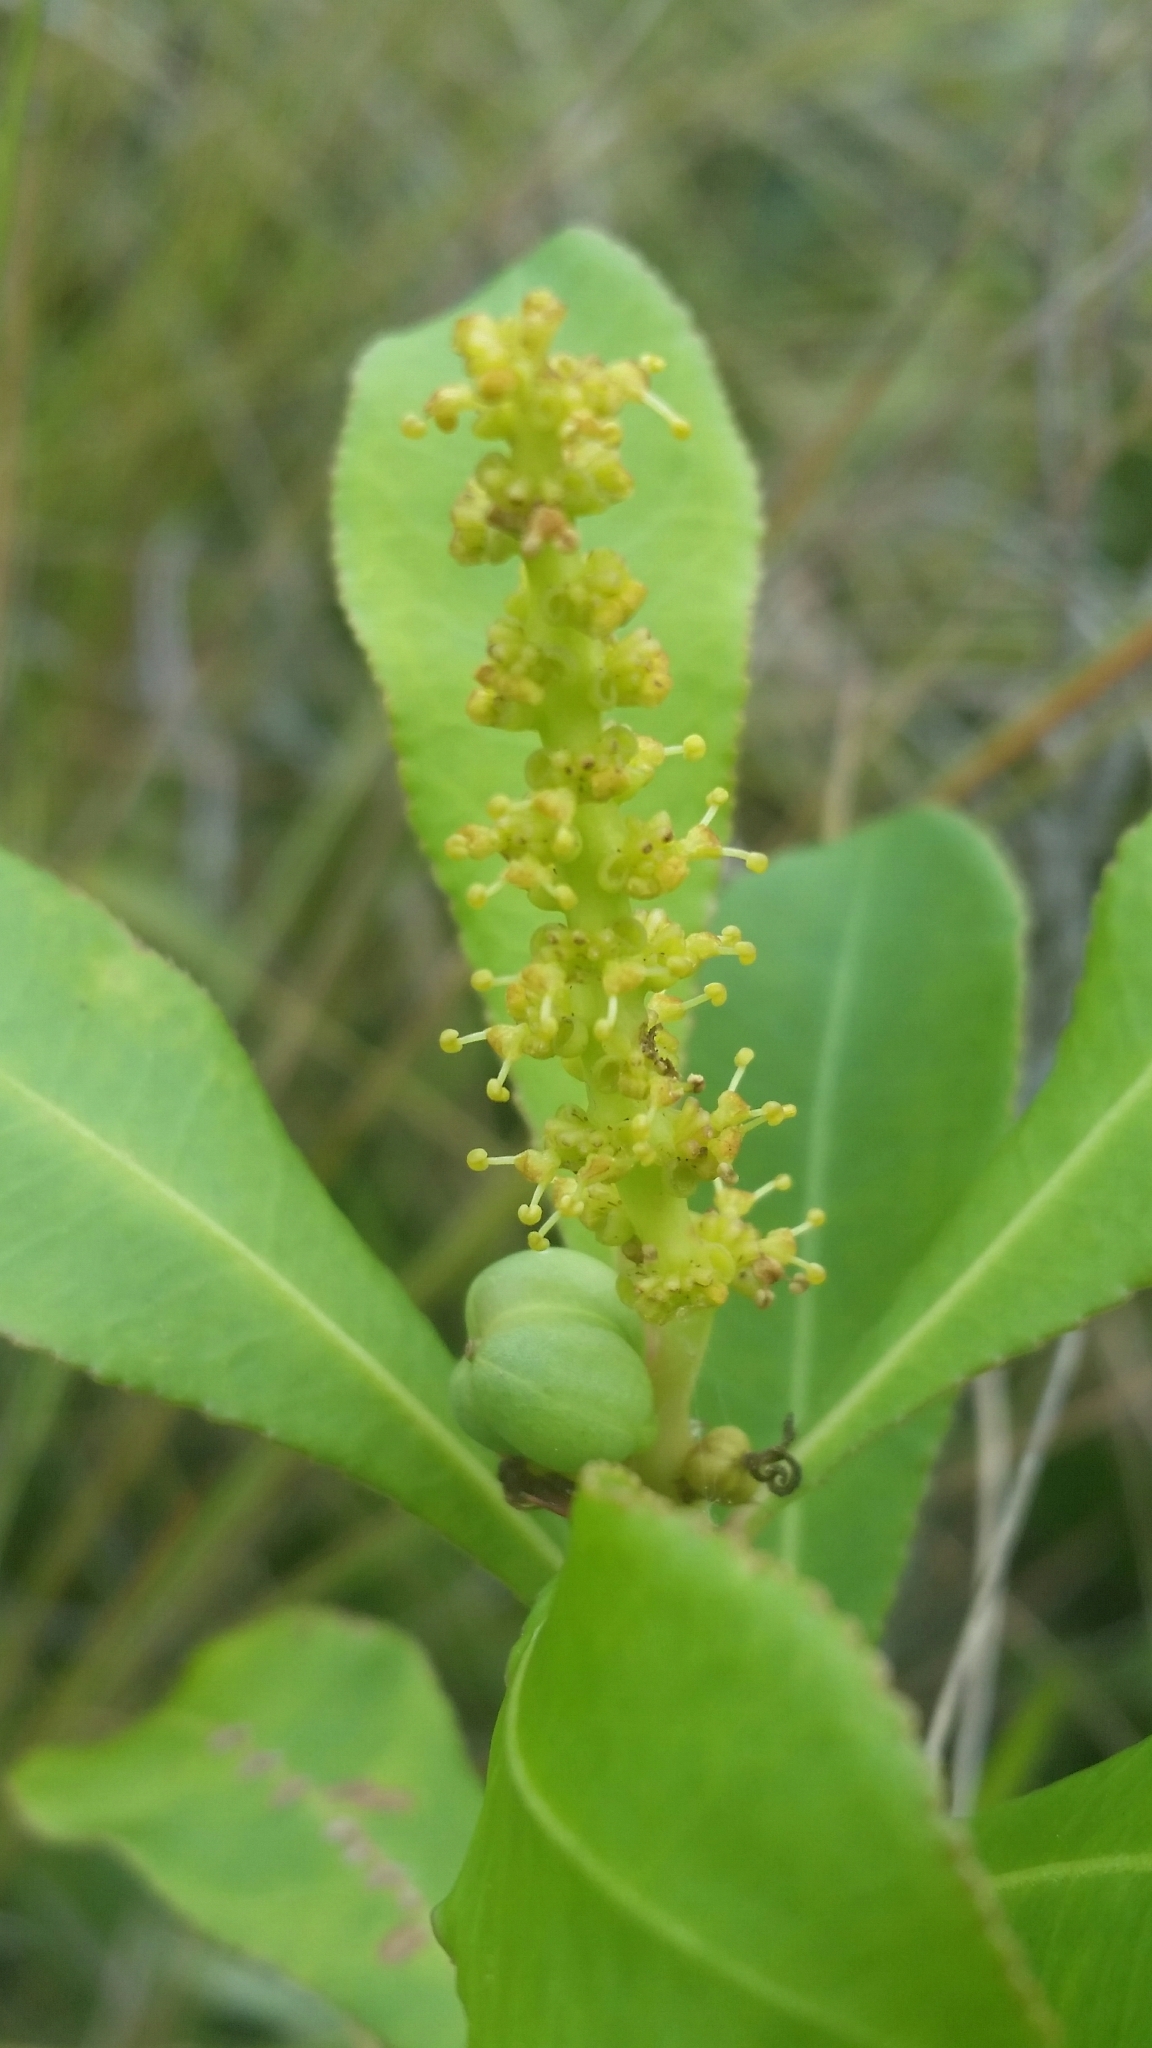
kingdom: Plantae
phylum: Tracheophyta
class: Magnoliopsida
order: Malpighiales
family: Euphorbiaceae
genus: Stillingia
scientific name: Stillingia sylvatica
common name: Queen's-delight
